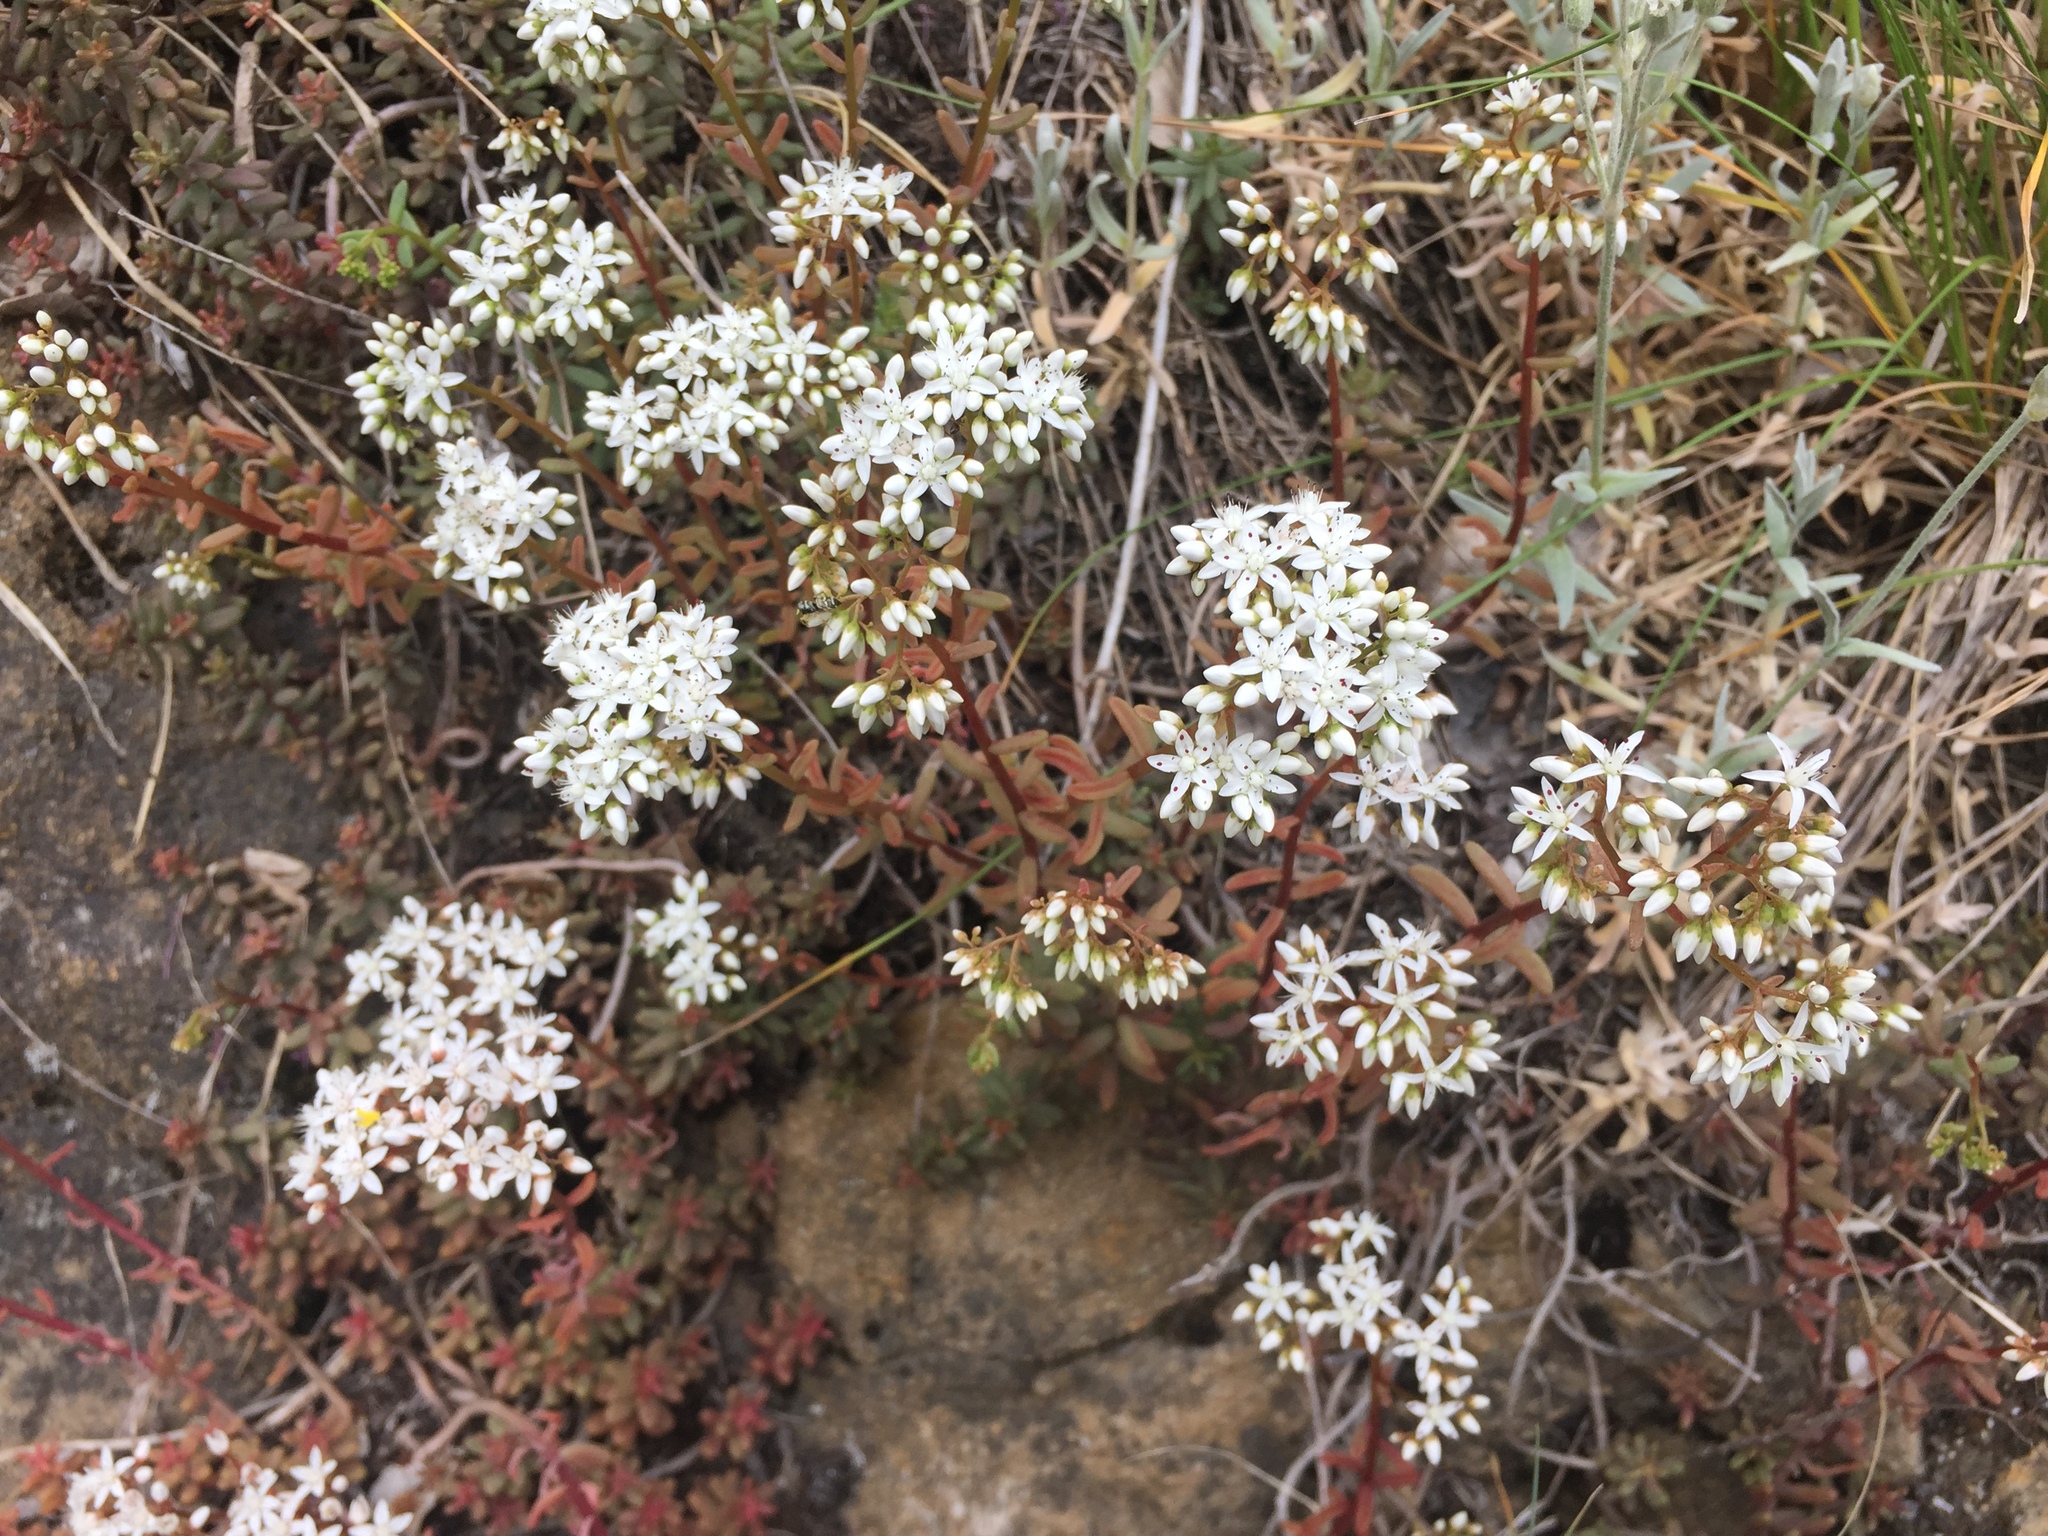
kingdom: Plantae
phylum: Tracheophyta
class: Magnoliopsida
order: Saxifragales
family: Crassulaceae
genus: Sedum
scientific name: Sedum album
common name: White stonecrop
